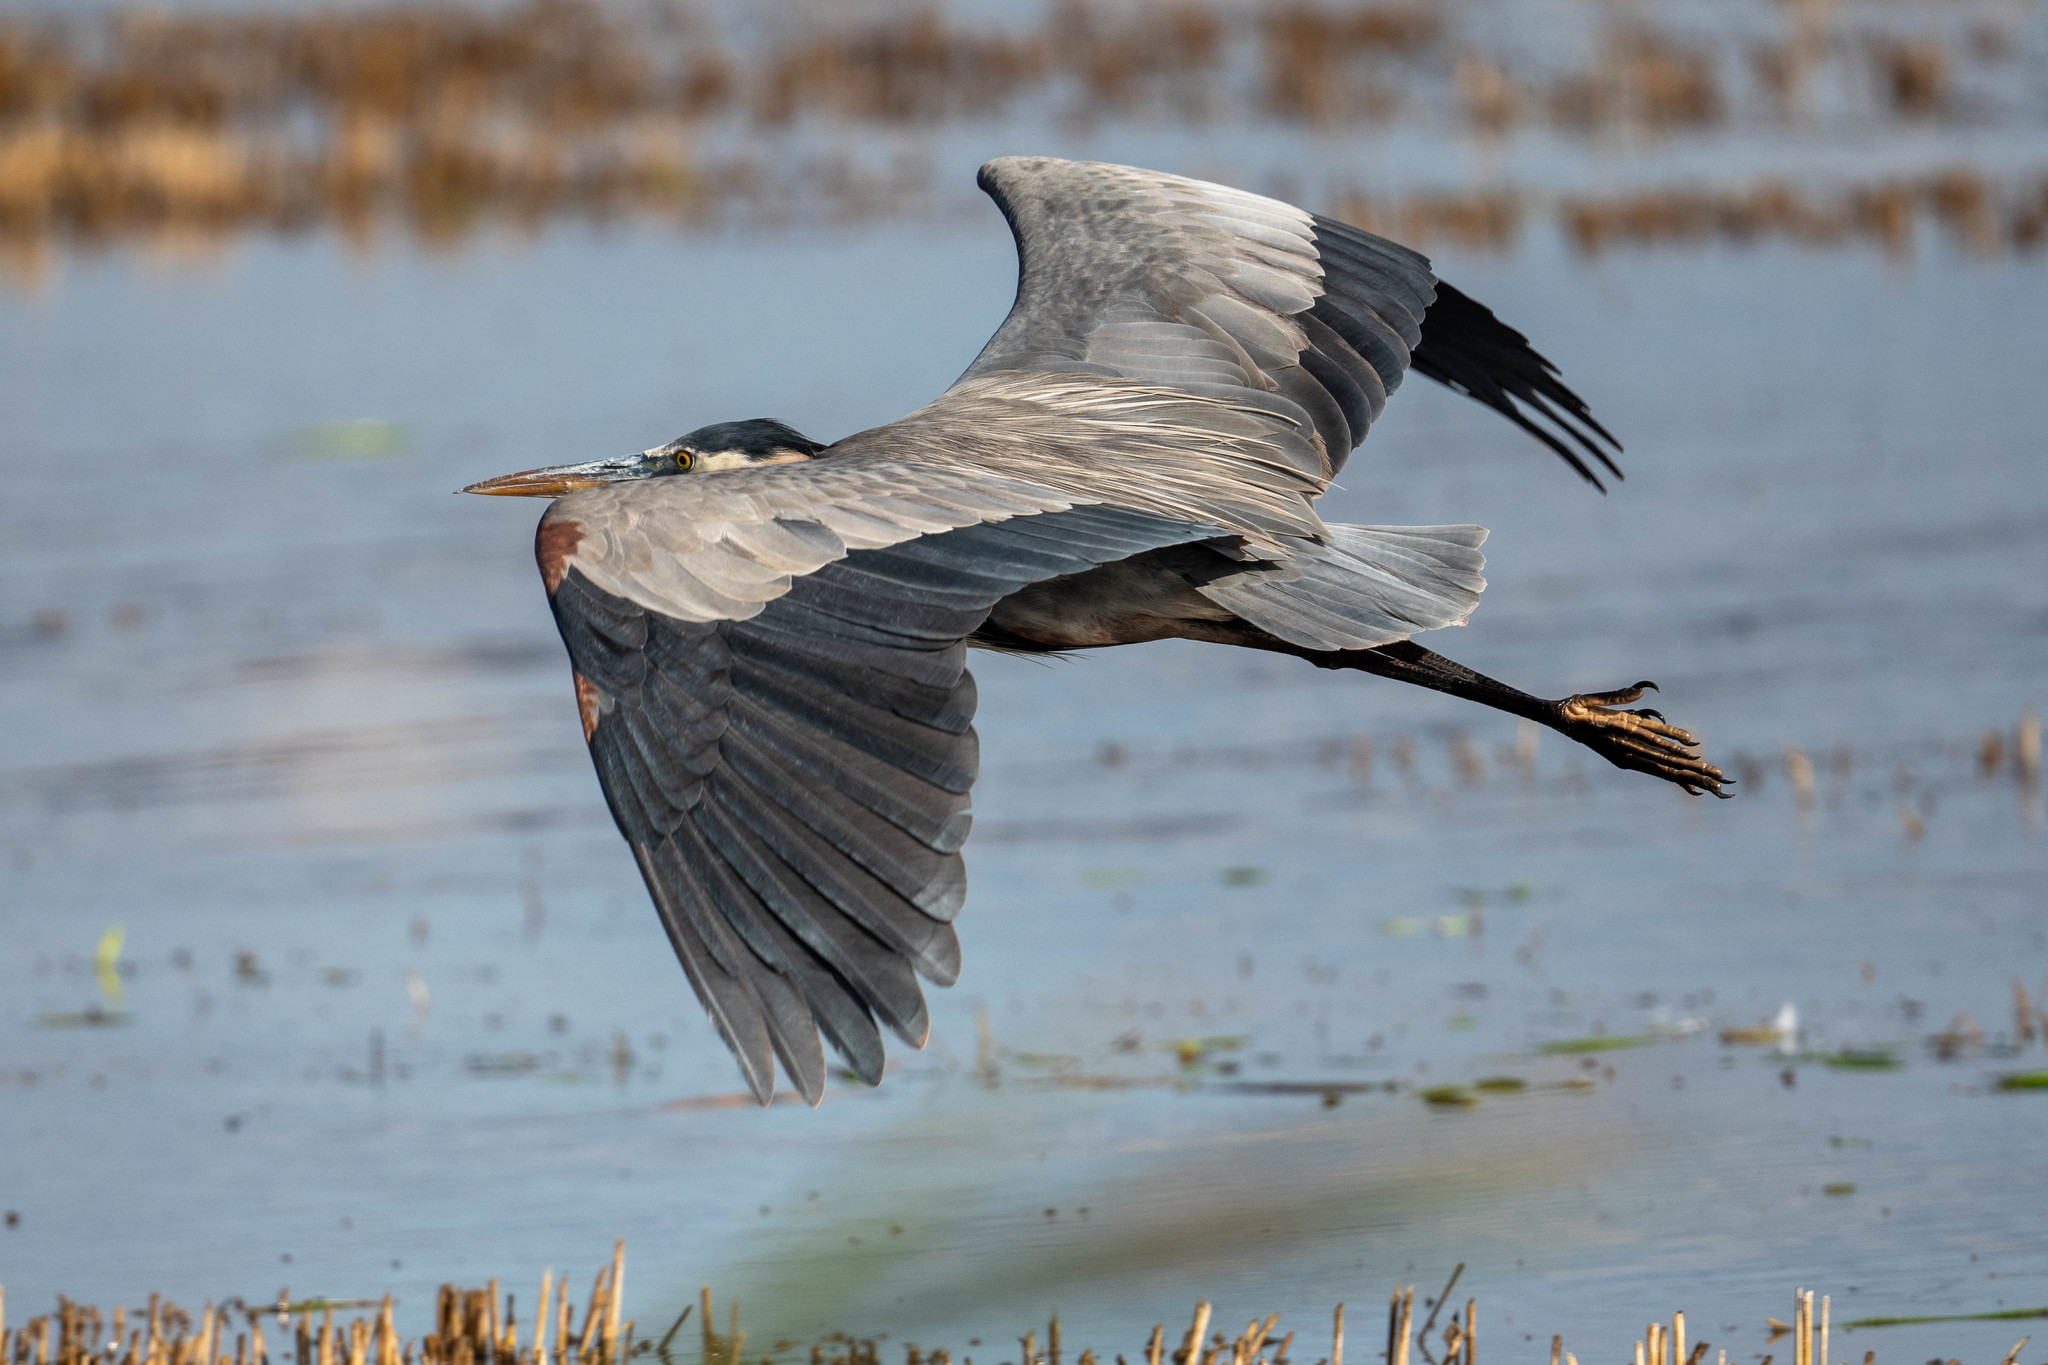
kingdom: Animalia
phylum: Chordata
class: Aves
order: Pelecaniformes
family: Ardeidae
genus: Ardea
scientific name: Ardea herodias
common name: Great blue heron
